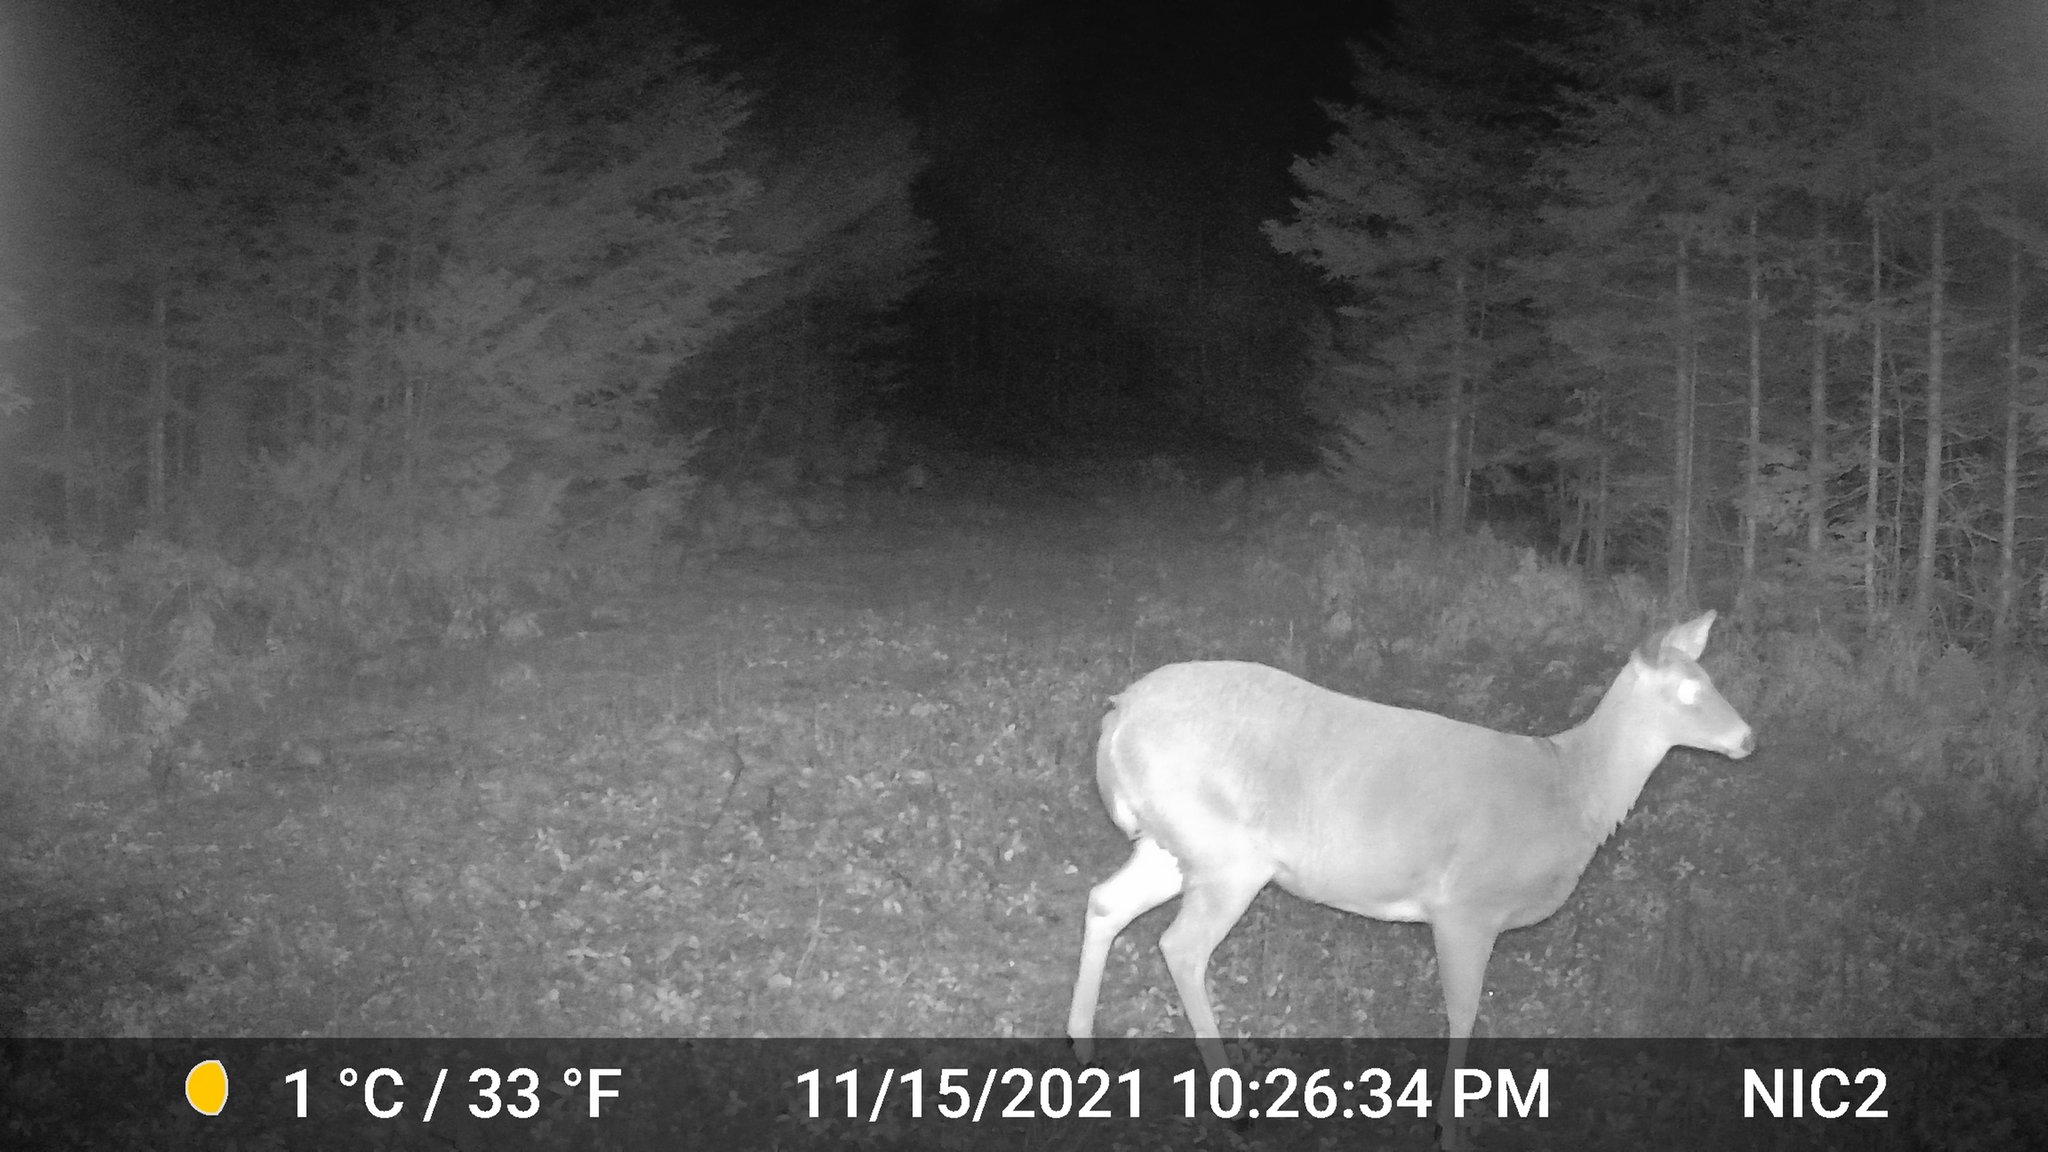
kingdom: Animalia
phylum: Chordata
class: Mammalia
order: Artiodactyla
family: Cervidae
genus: Odocoileus
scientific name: Odocoileus virginianus
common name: White-tailed deer
